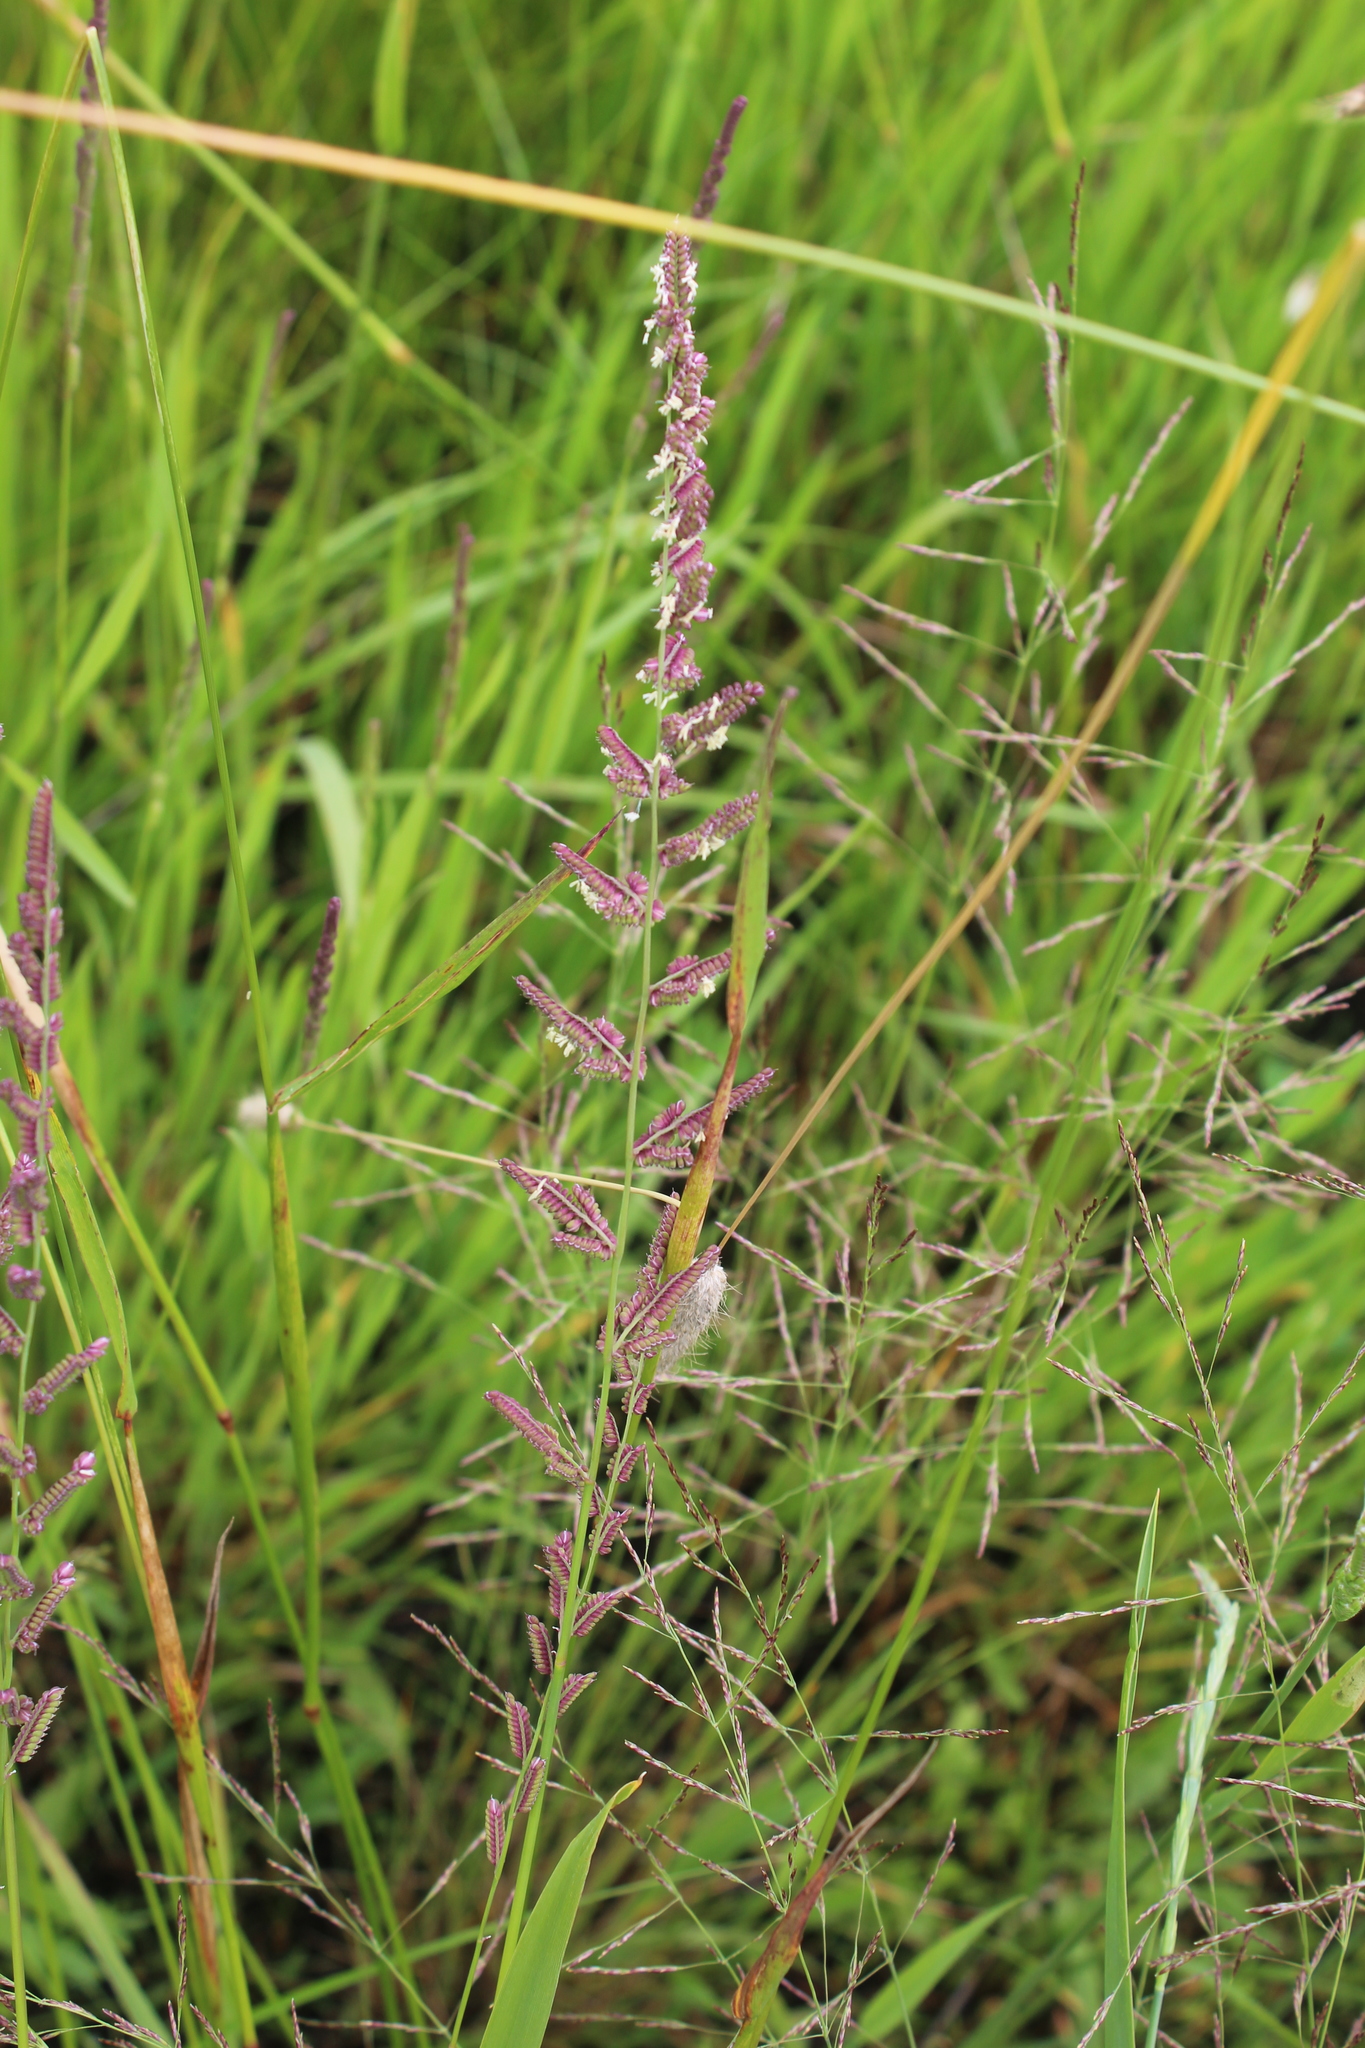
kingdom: Plantae
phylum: Tracheophyta
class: Liliopsida
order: Poales
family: Poaceae
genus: Beckmannia
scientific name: Beckmannia eruciformis
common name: European slough-grass
